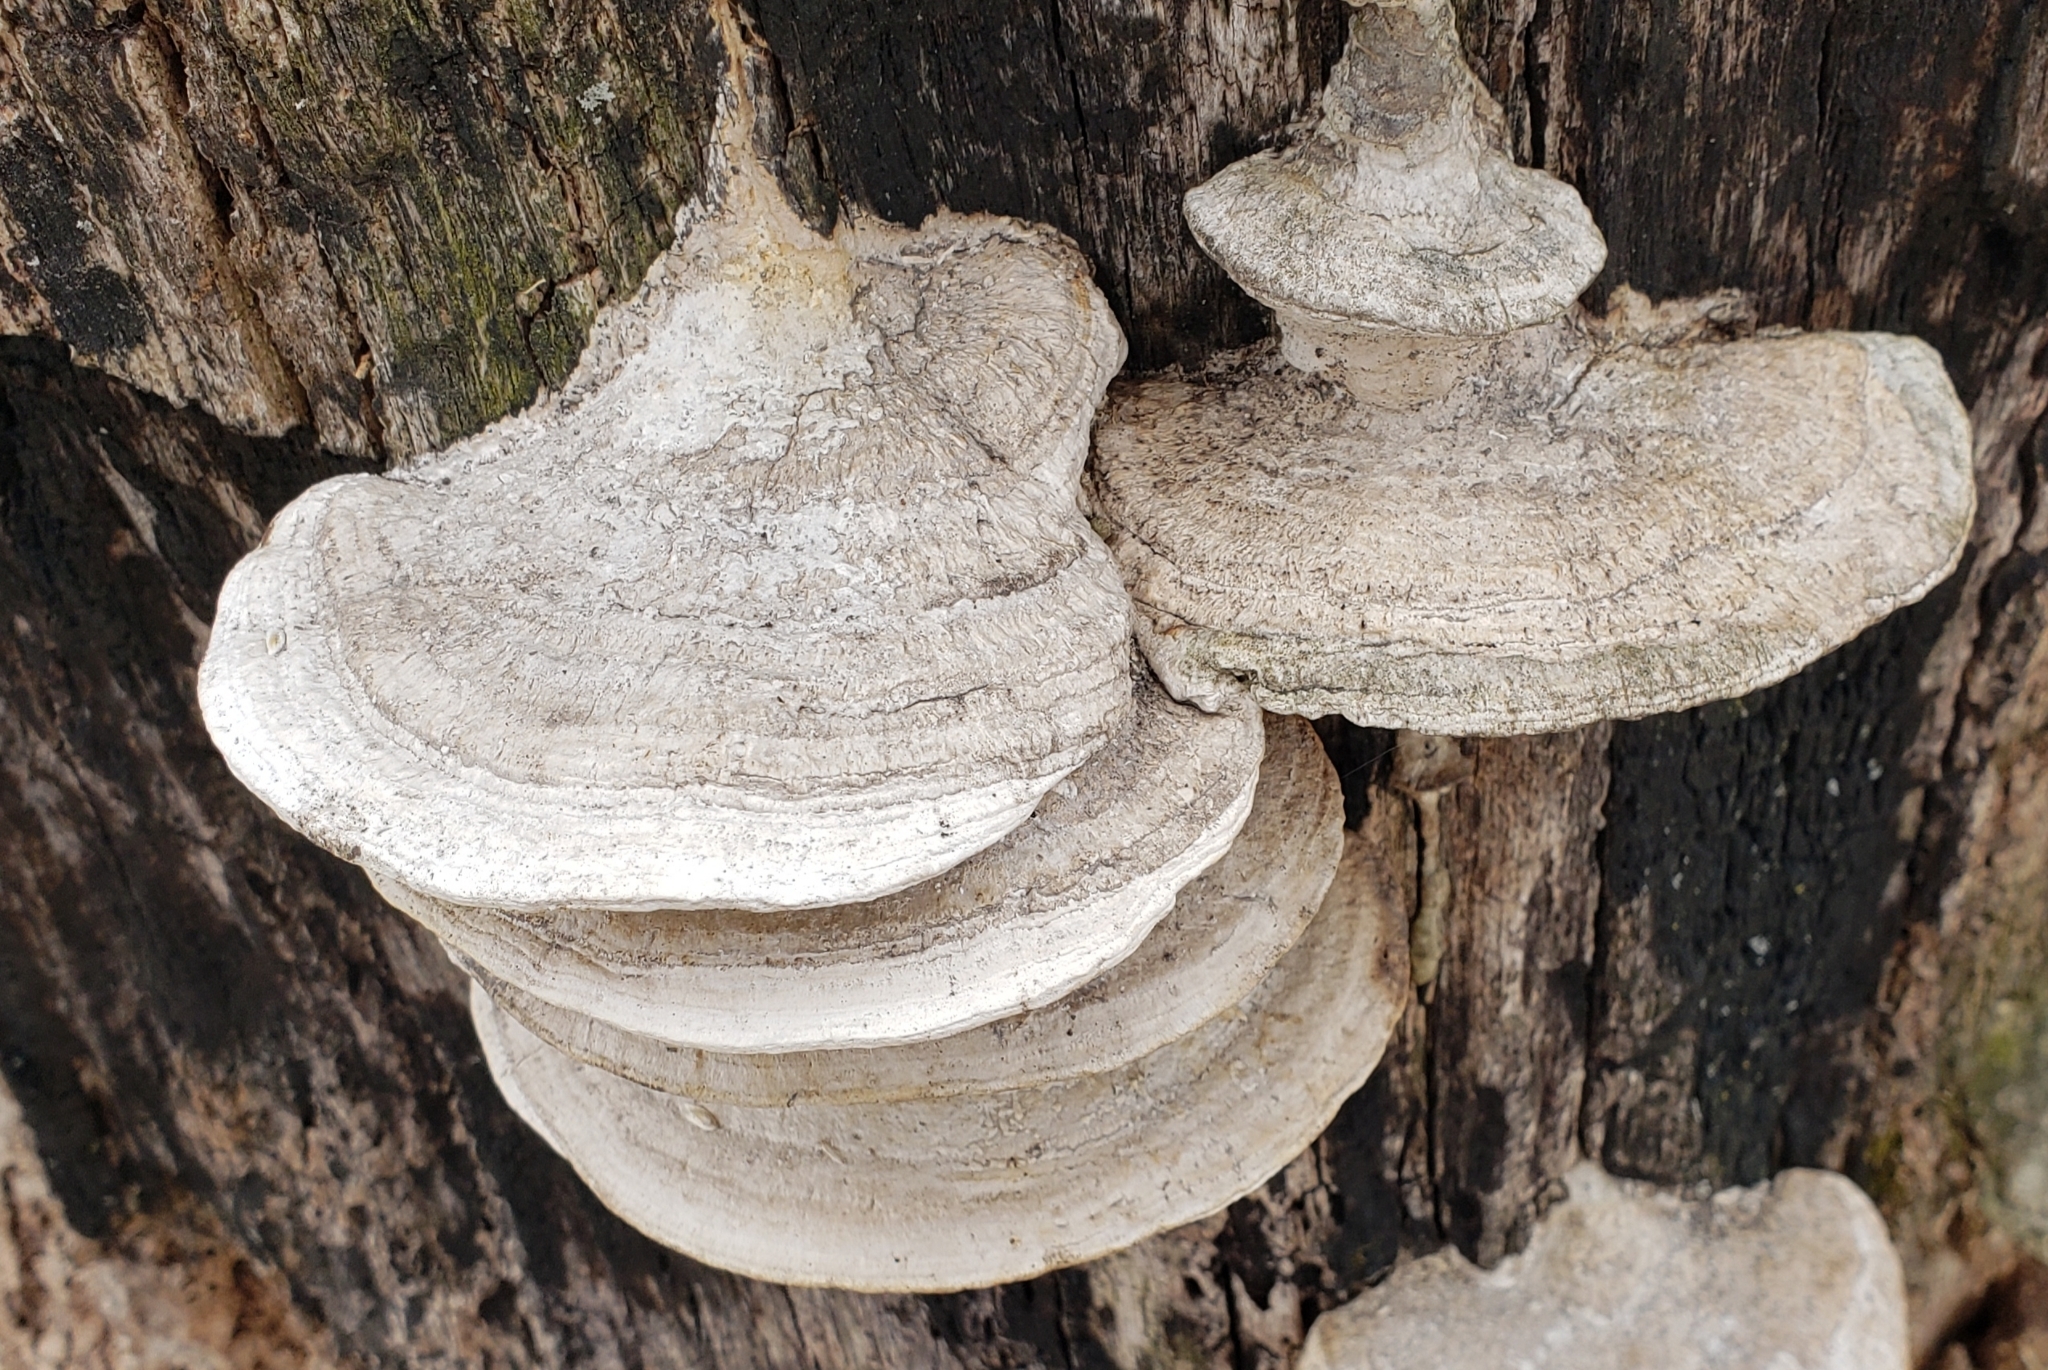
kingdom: Fungi
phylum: Basidiomycota
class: Agaricomycetes
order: Polyporales
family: Fomitopsidaceae
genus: Fomitopsis
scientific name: Fomitopsis
